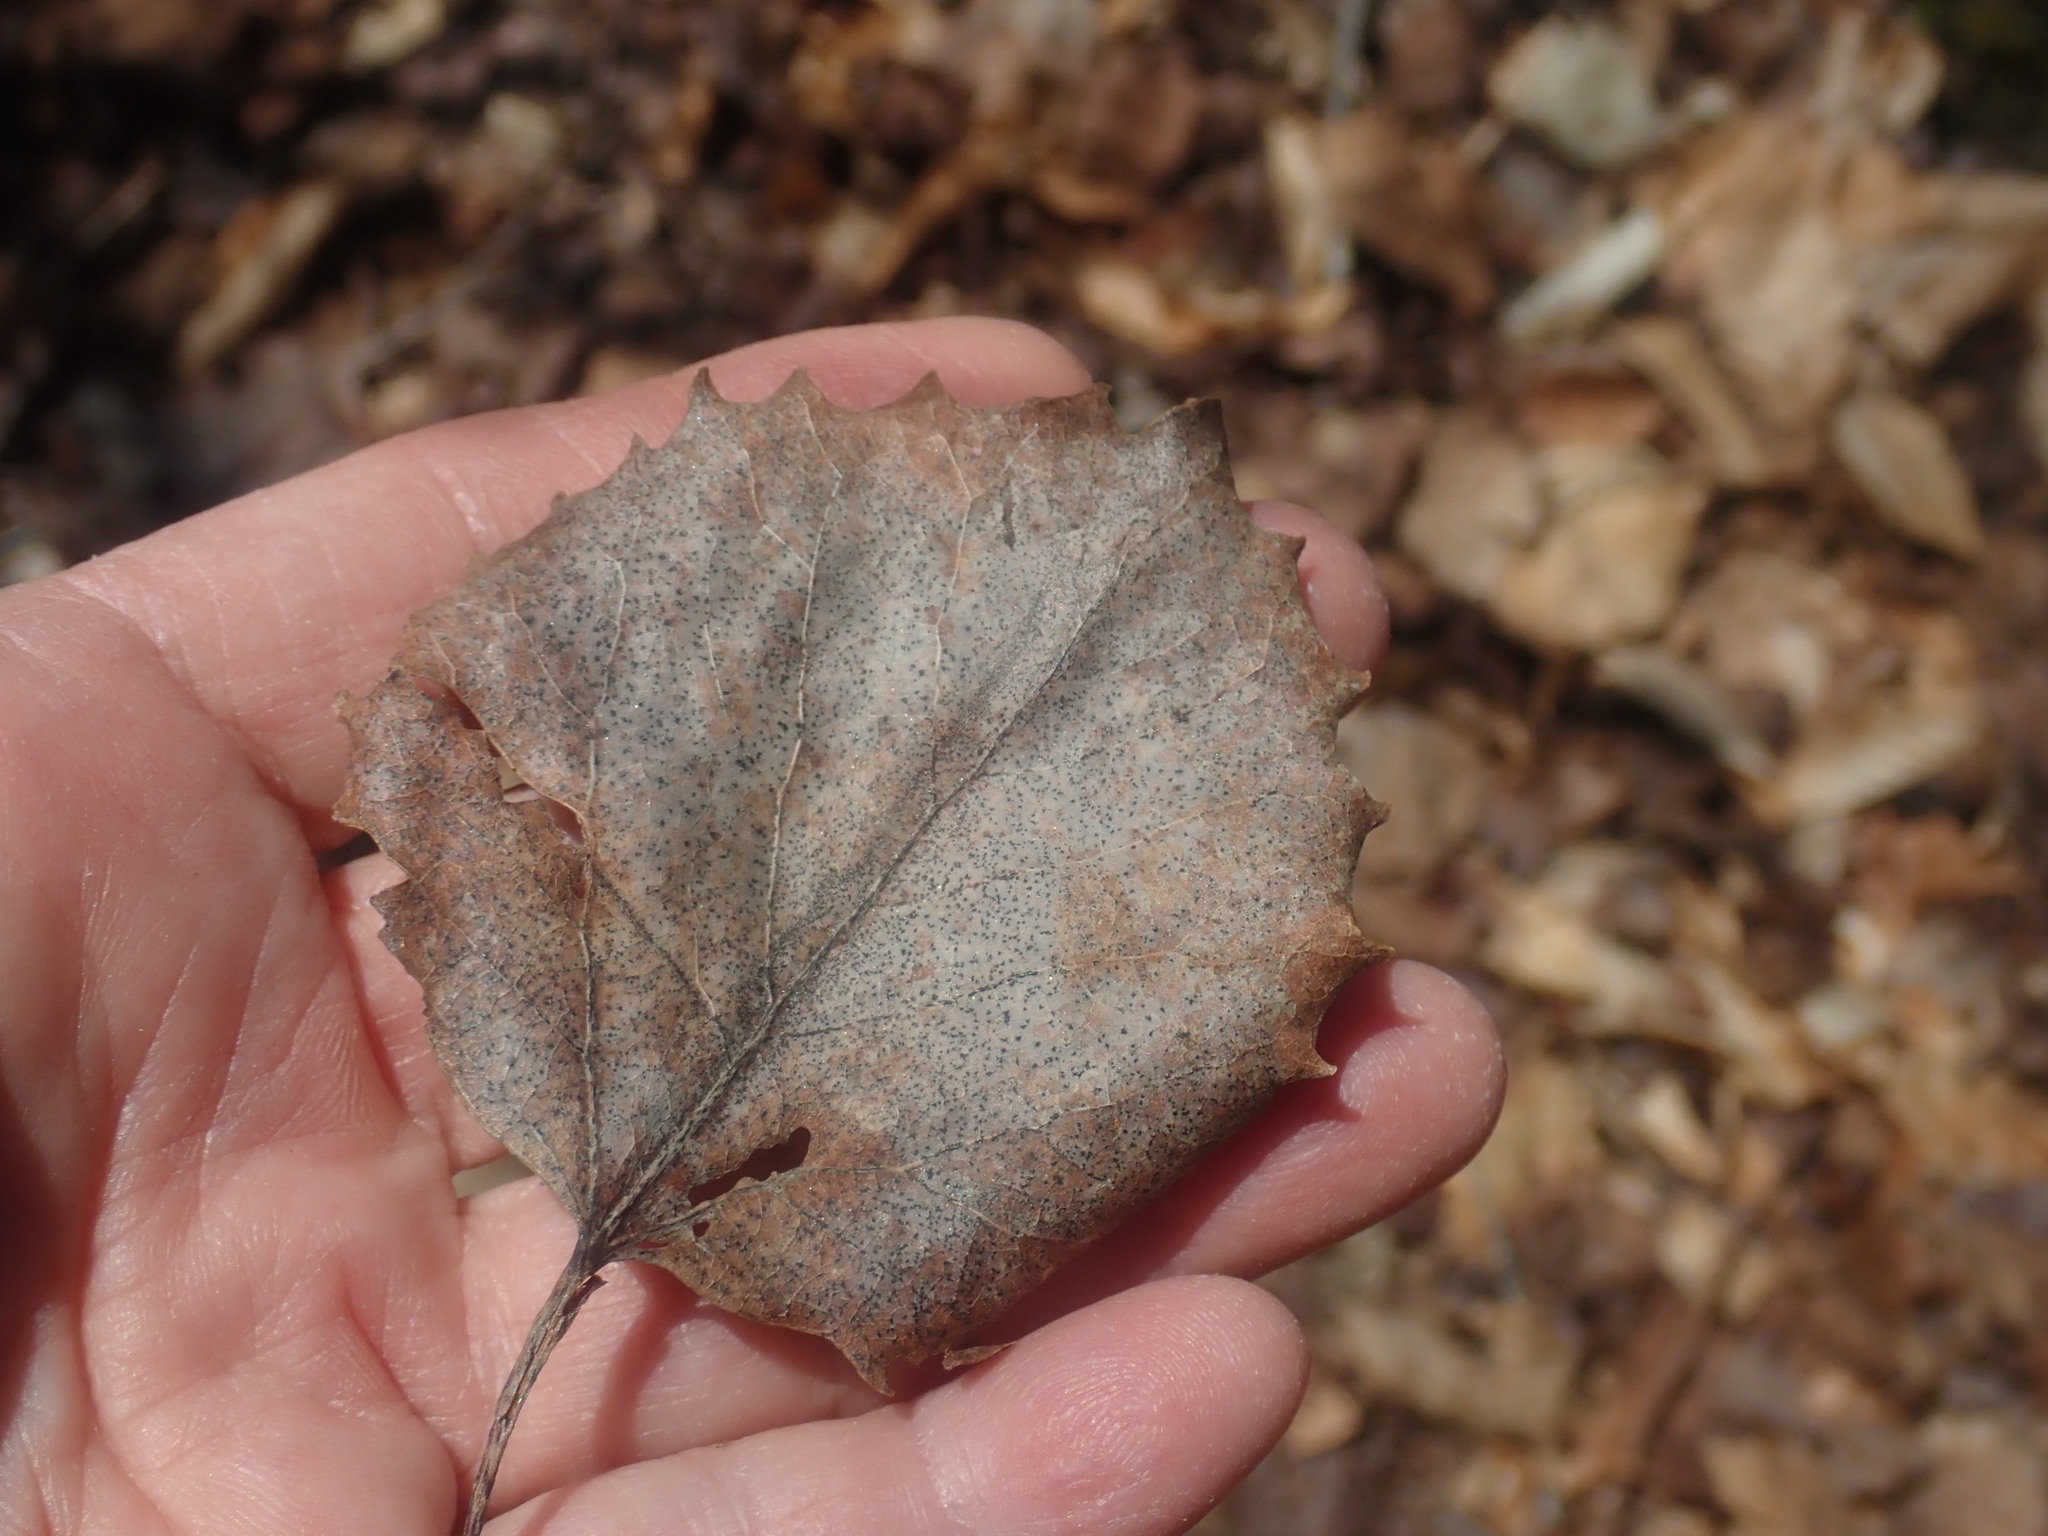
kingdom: Plantae
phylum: Tracheophyta
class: Magnoliopsida
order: Malpighiales
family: Salicaceae
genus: Populus
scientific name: Populus grandidentata
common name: Bigtooth aspen
